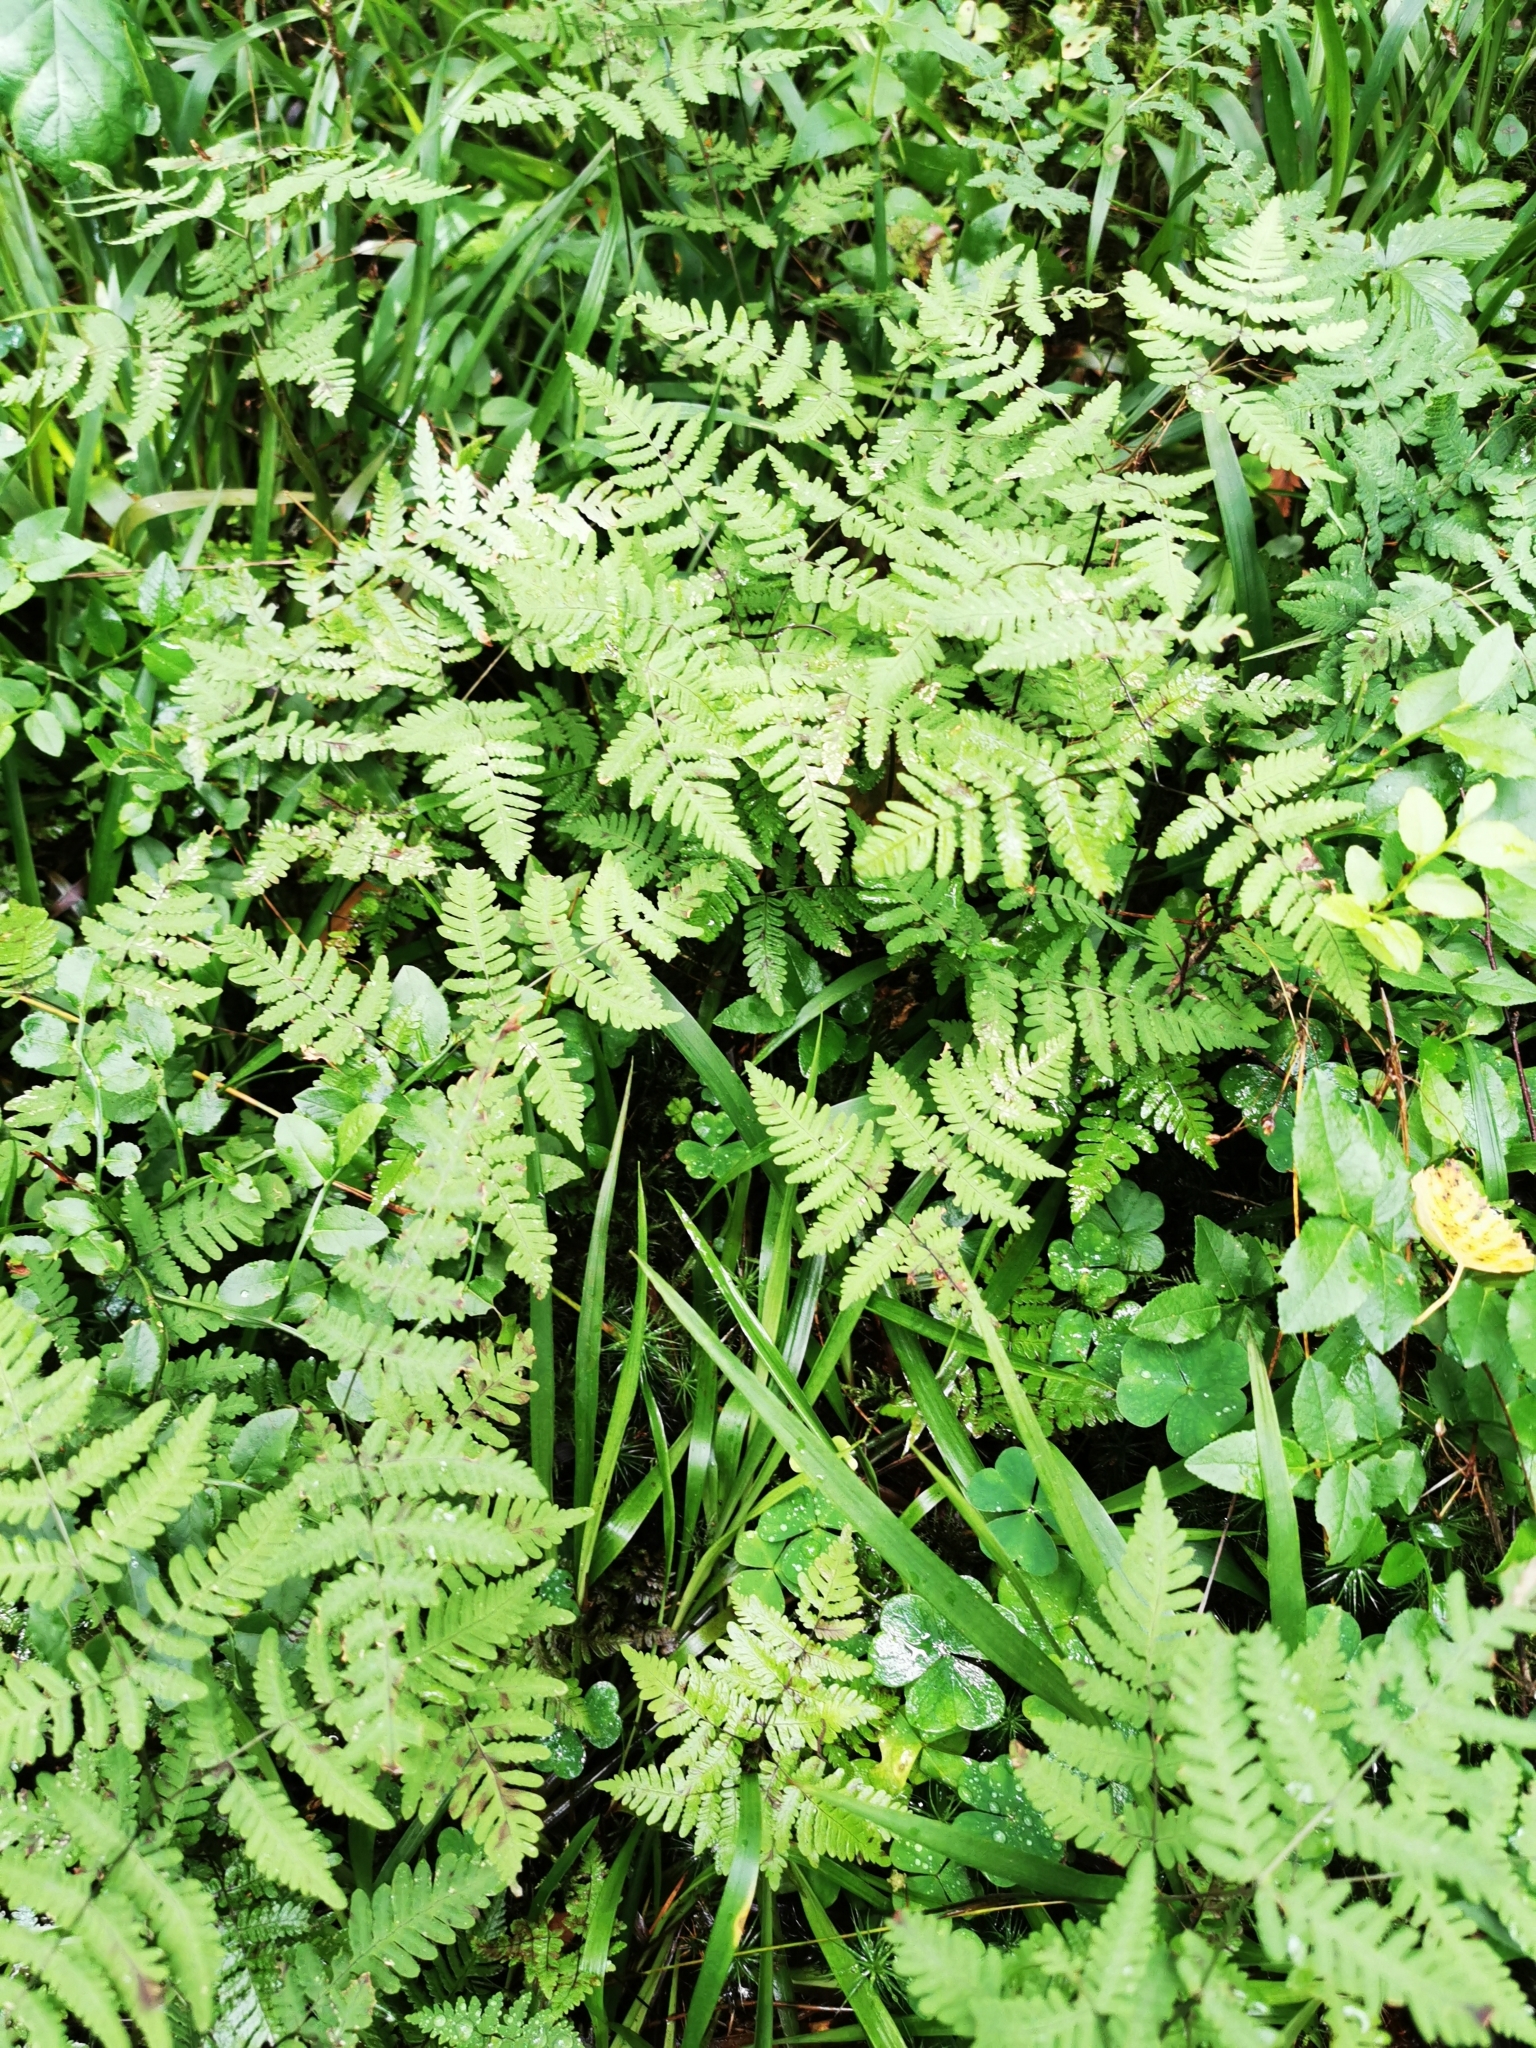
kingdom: Plantae
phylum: Tracheophyta
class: Polypodiopsida
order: Polypodiales
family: Cystopteridaceae
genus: Gymnocarpium
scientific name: Gymnocarpium dryopteris
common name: Oak fern
